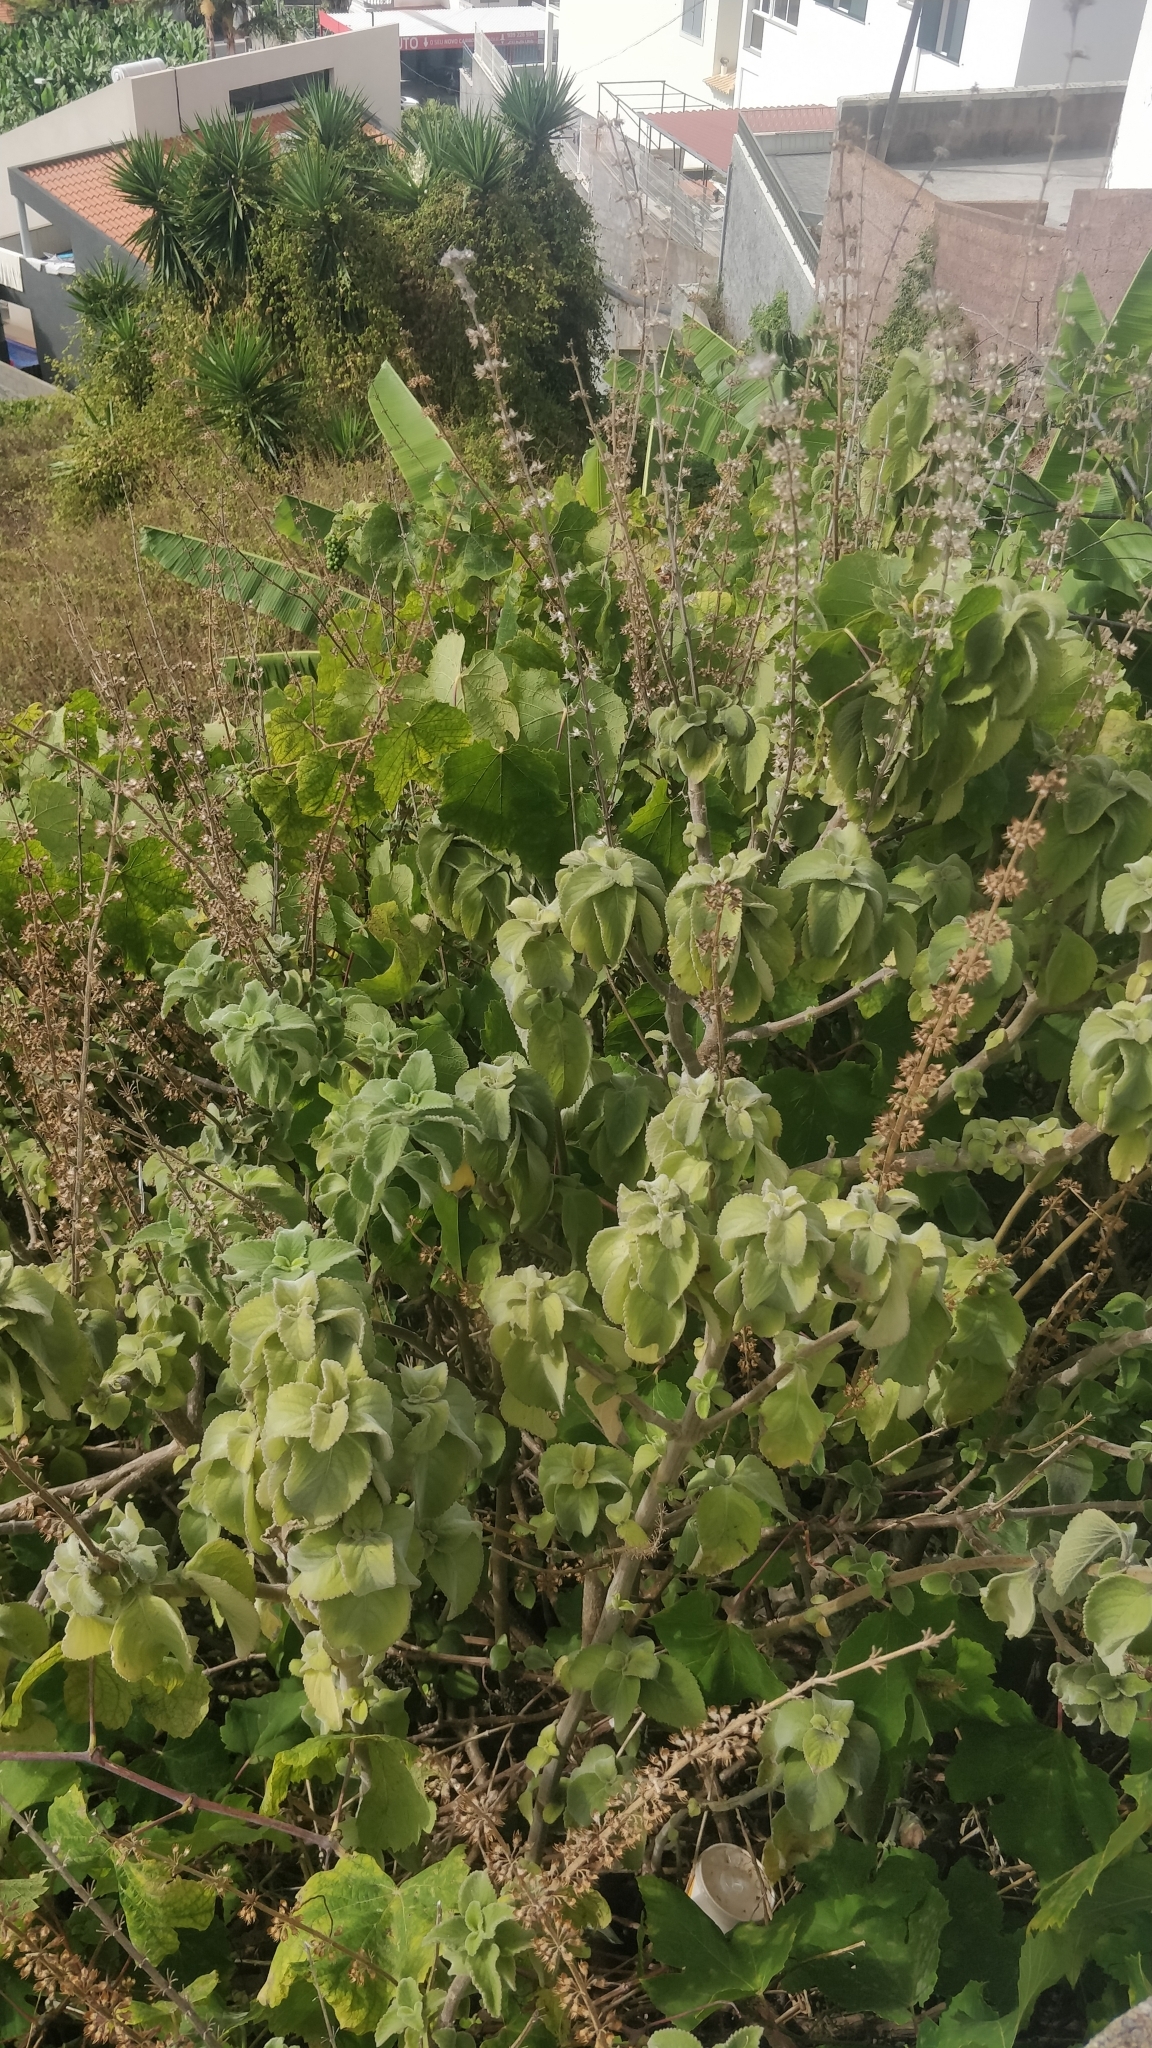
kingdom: Plantae
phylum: Tracheophyta
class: Magnoliopsida
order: Lamiales
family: Lamiaceae
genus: Coleus
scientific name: Coleus barbatus
